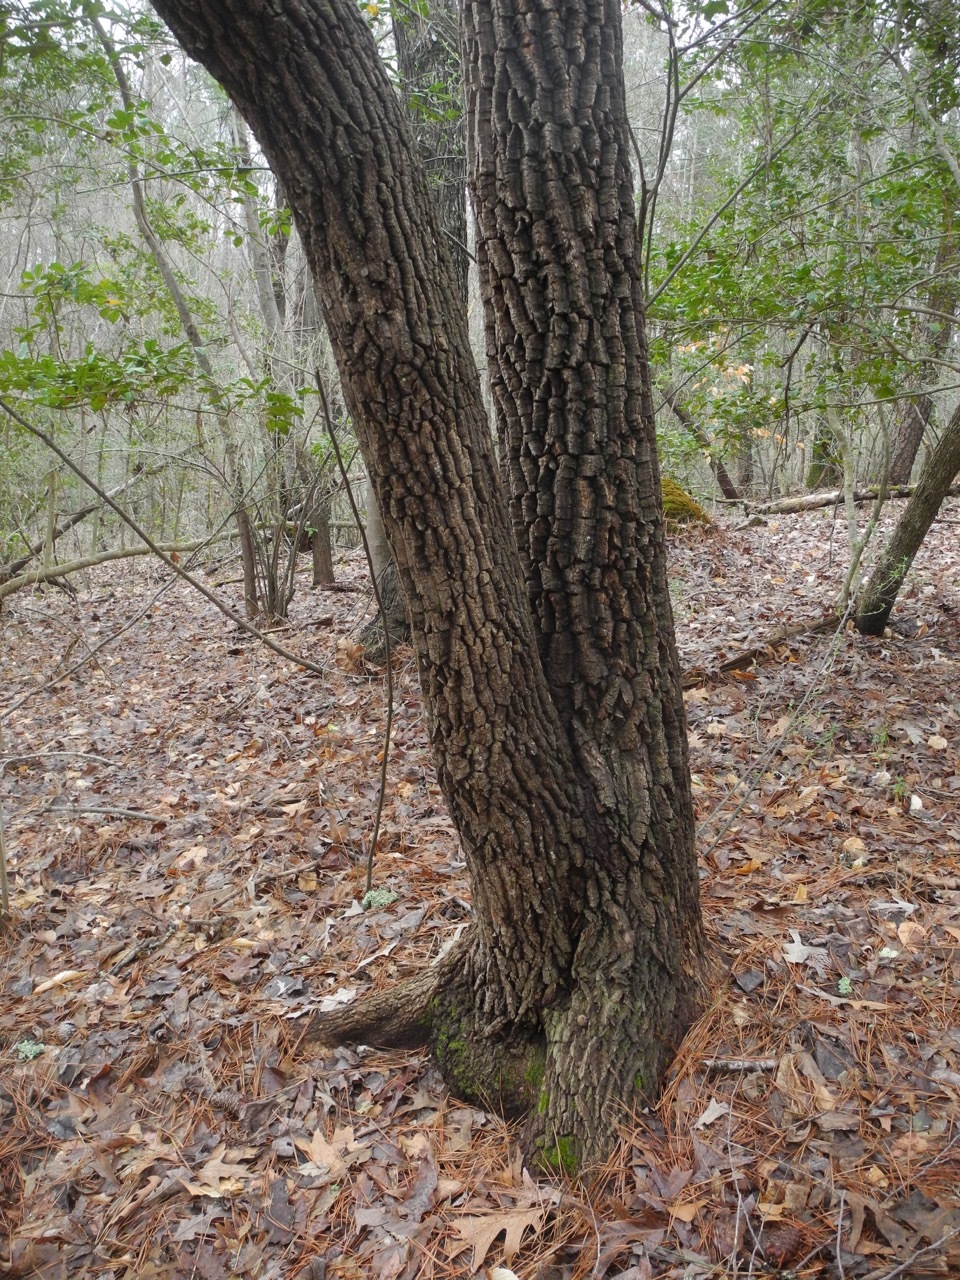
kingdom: Plantae
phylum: Tracheophyta
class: Magnoliopsida
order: Ericales
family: Ericaceae
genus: Oxydendrum
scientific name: Oxydendrum arboreum
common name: Sourwood
